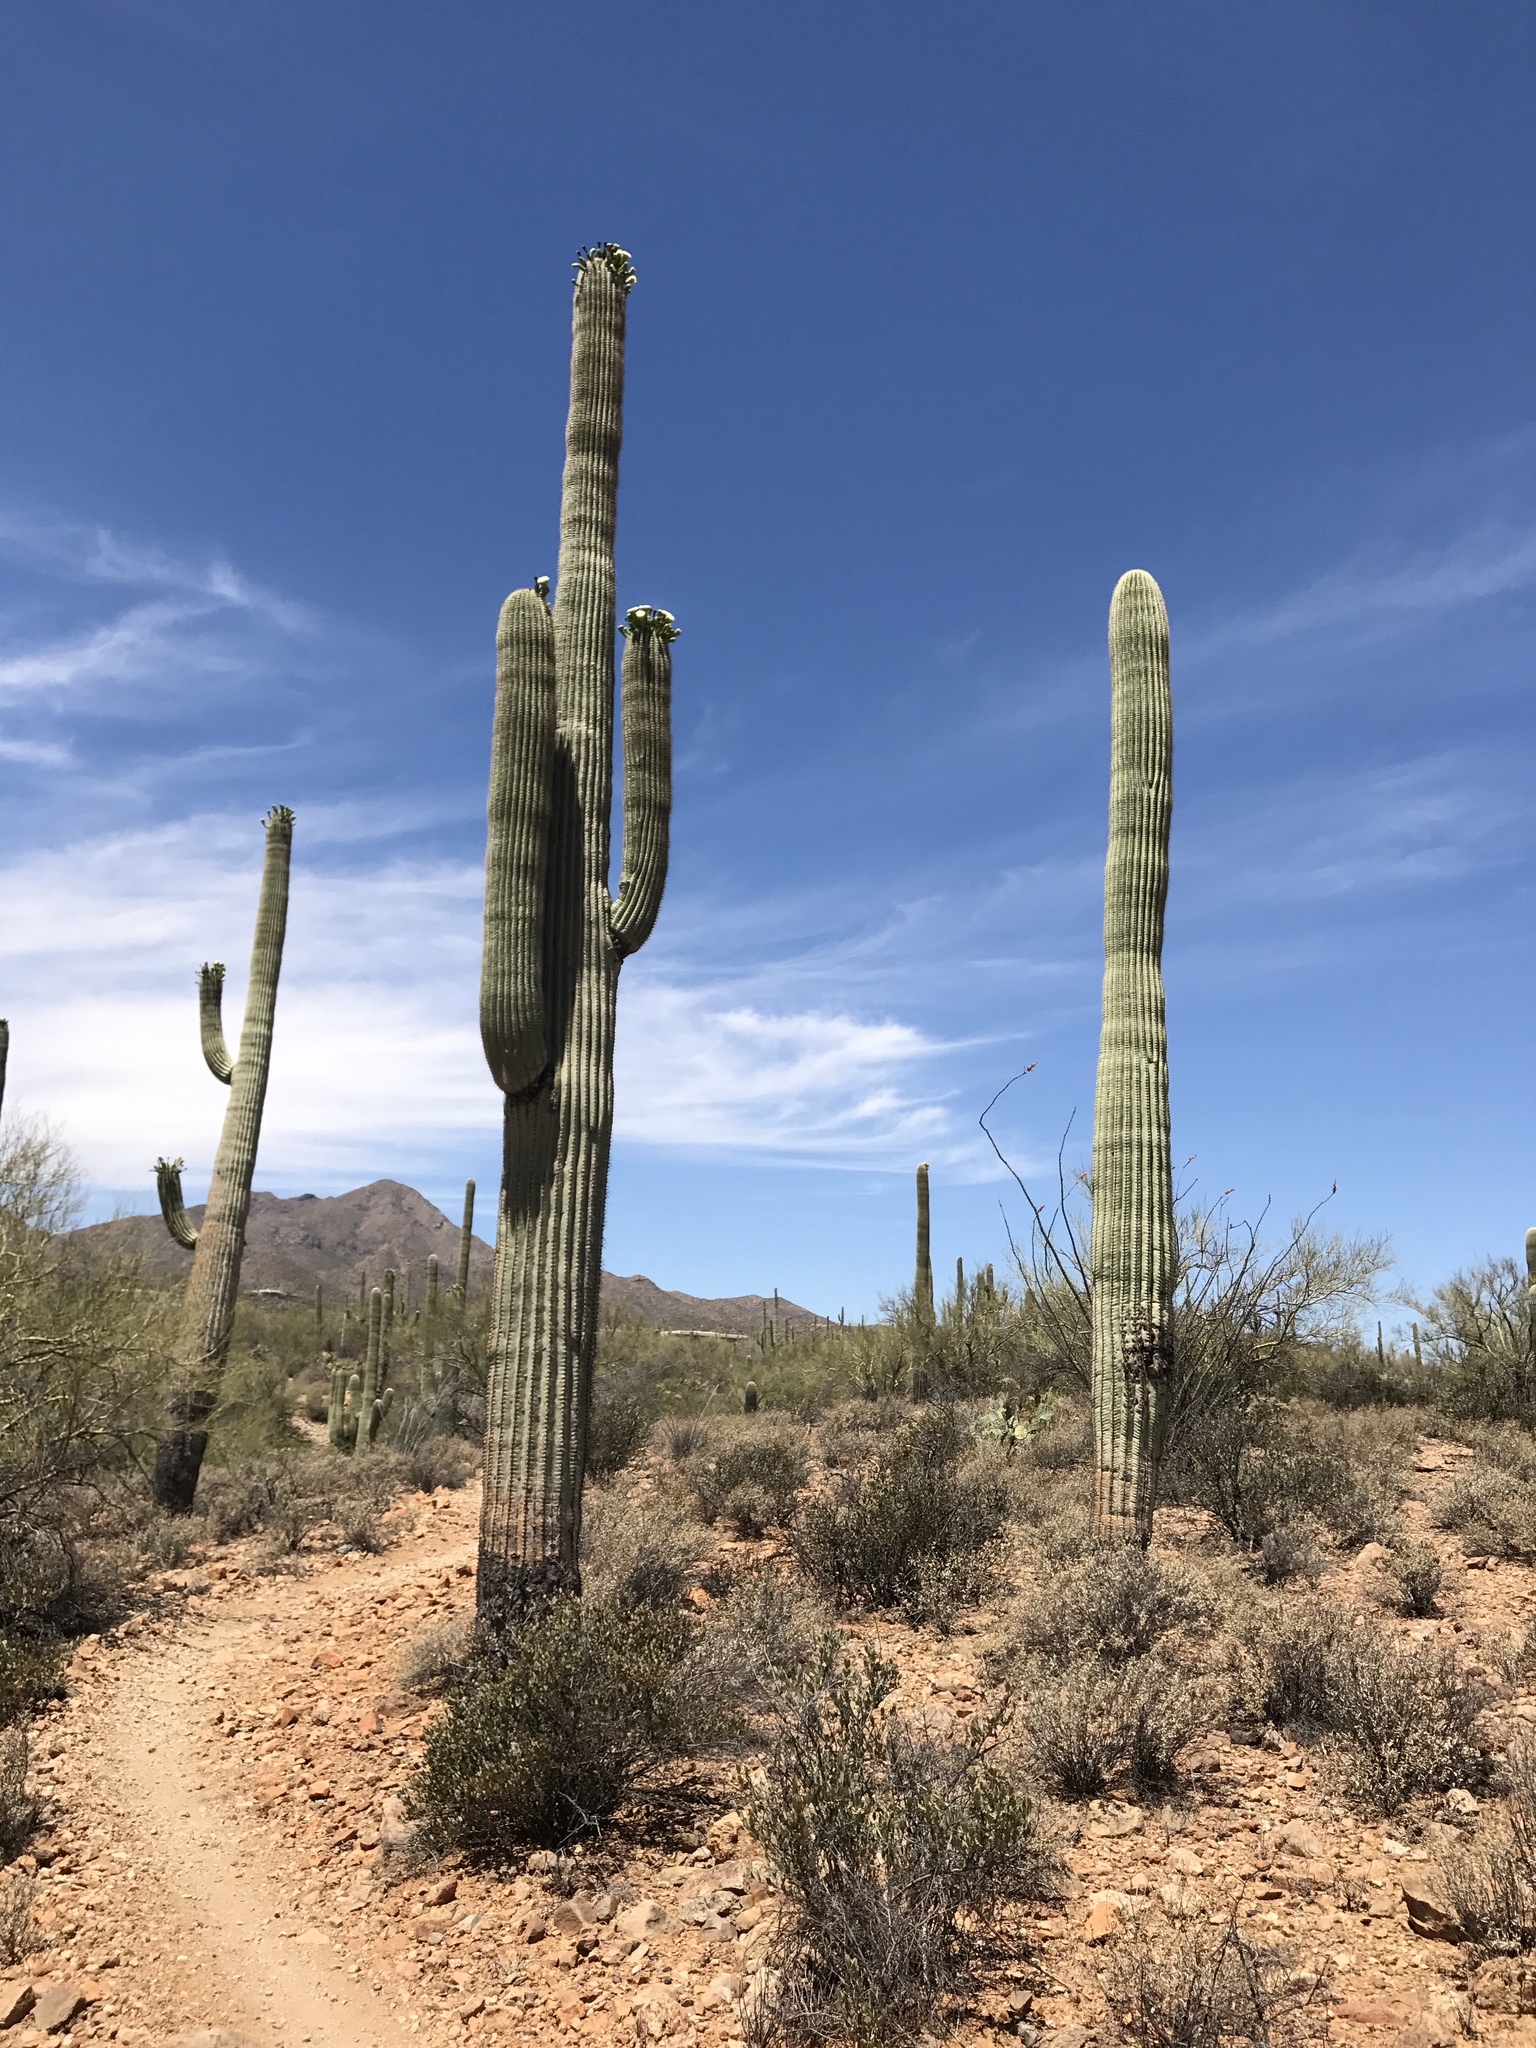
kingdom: Plantae
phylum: Tracheophyta
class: Magnoliopsida
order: Caryophyllales
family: Cactaceae
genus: Carnegiea
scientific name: Carnegiea gigantea
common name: Saguaro
